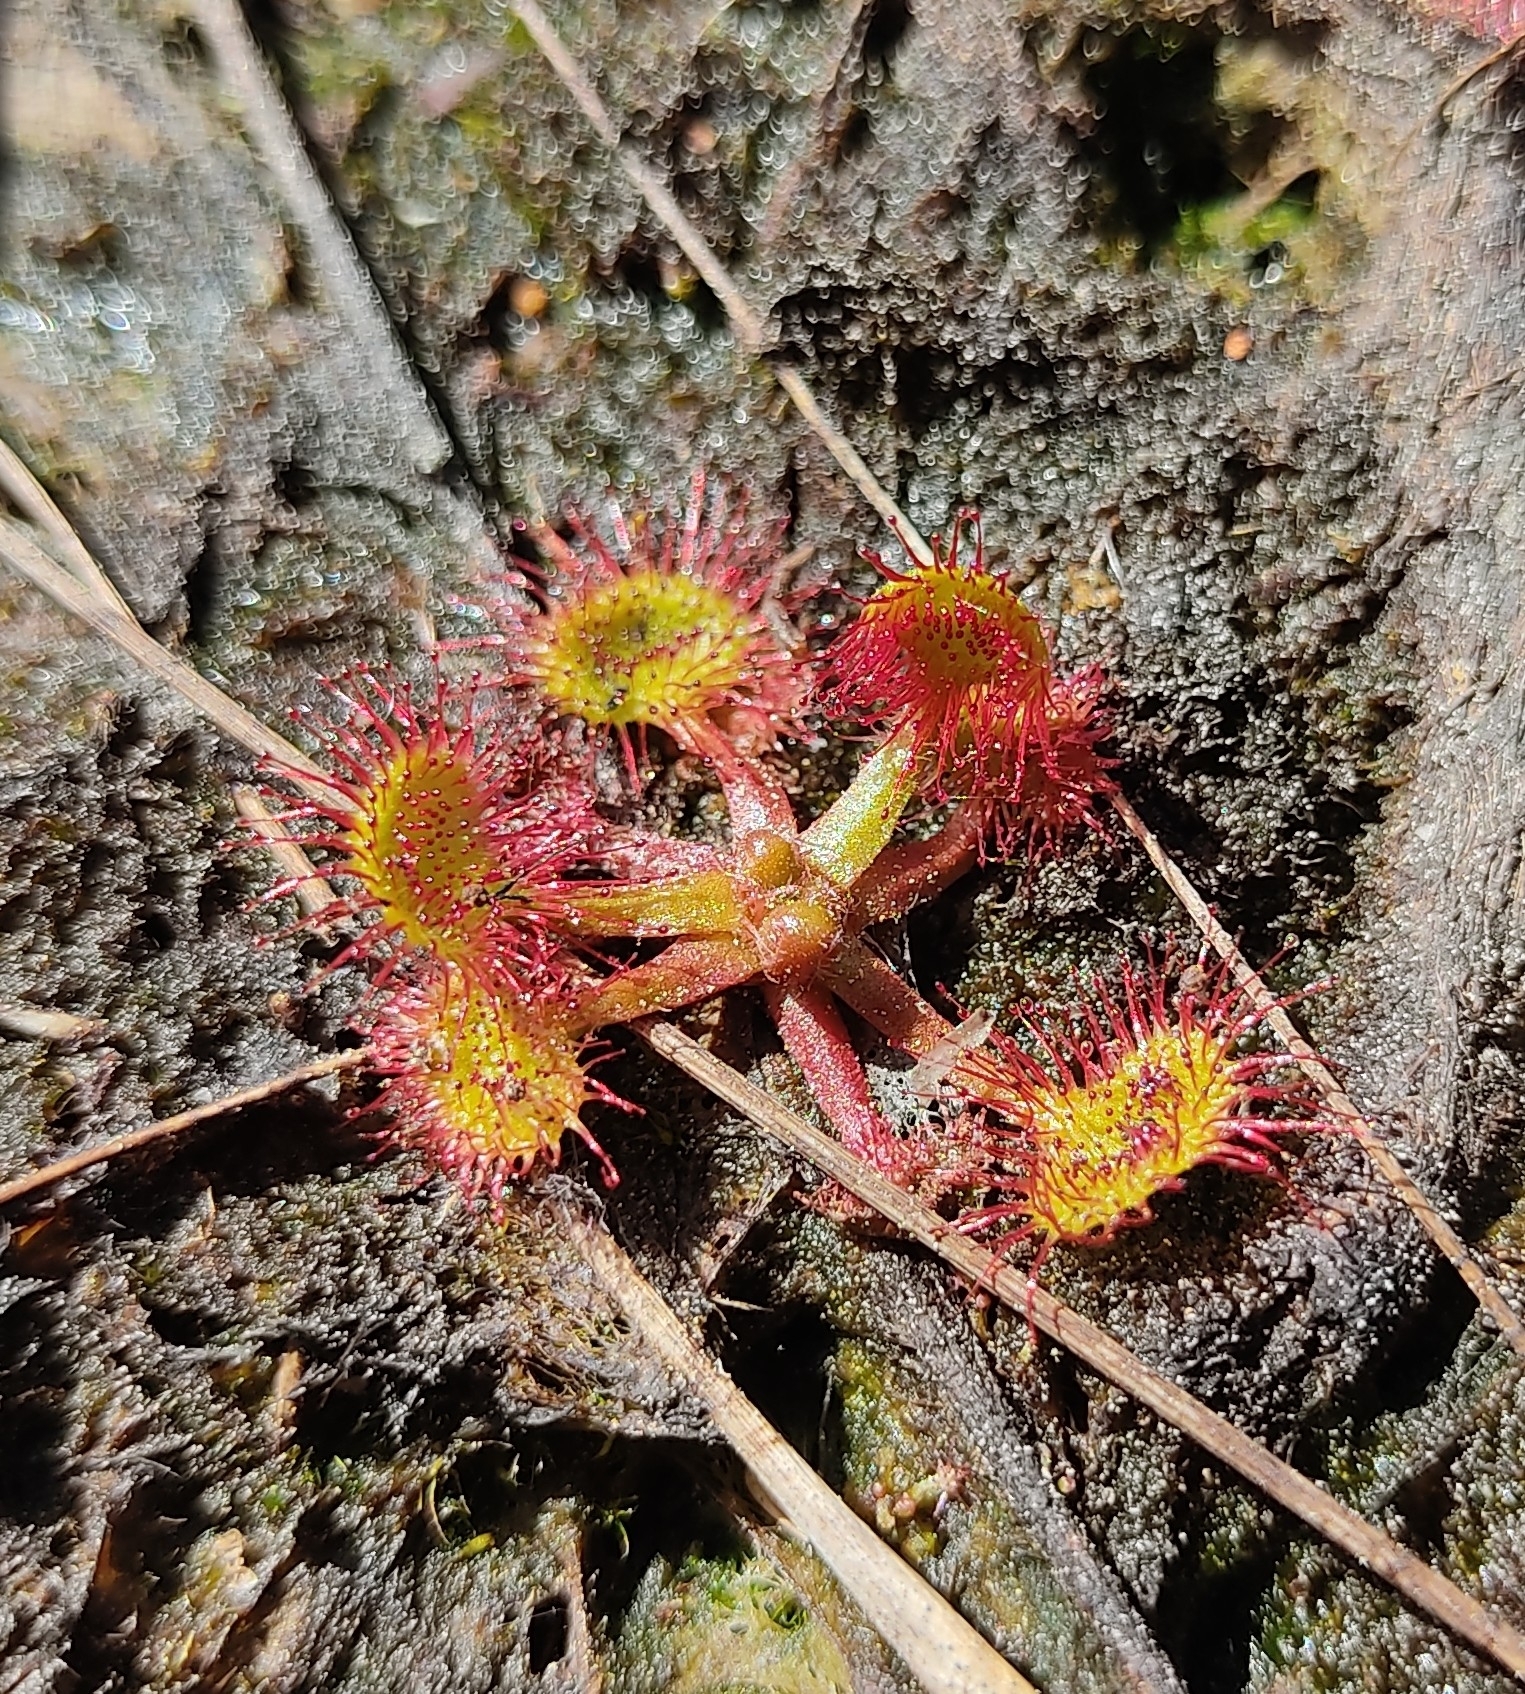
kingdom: Plantae
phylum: Tracheophyta
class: Magnoliopsida
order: Caryophyllales
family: Droseraceae
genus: Drosera
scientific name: Drosera rotundifolia
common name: Round-leaved sundew
